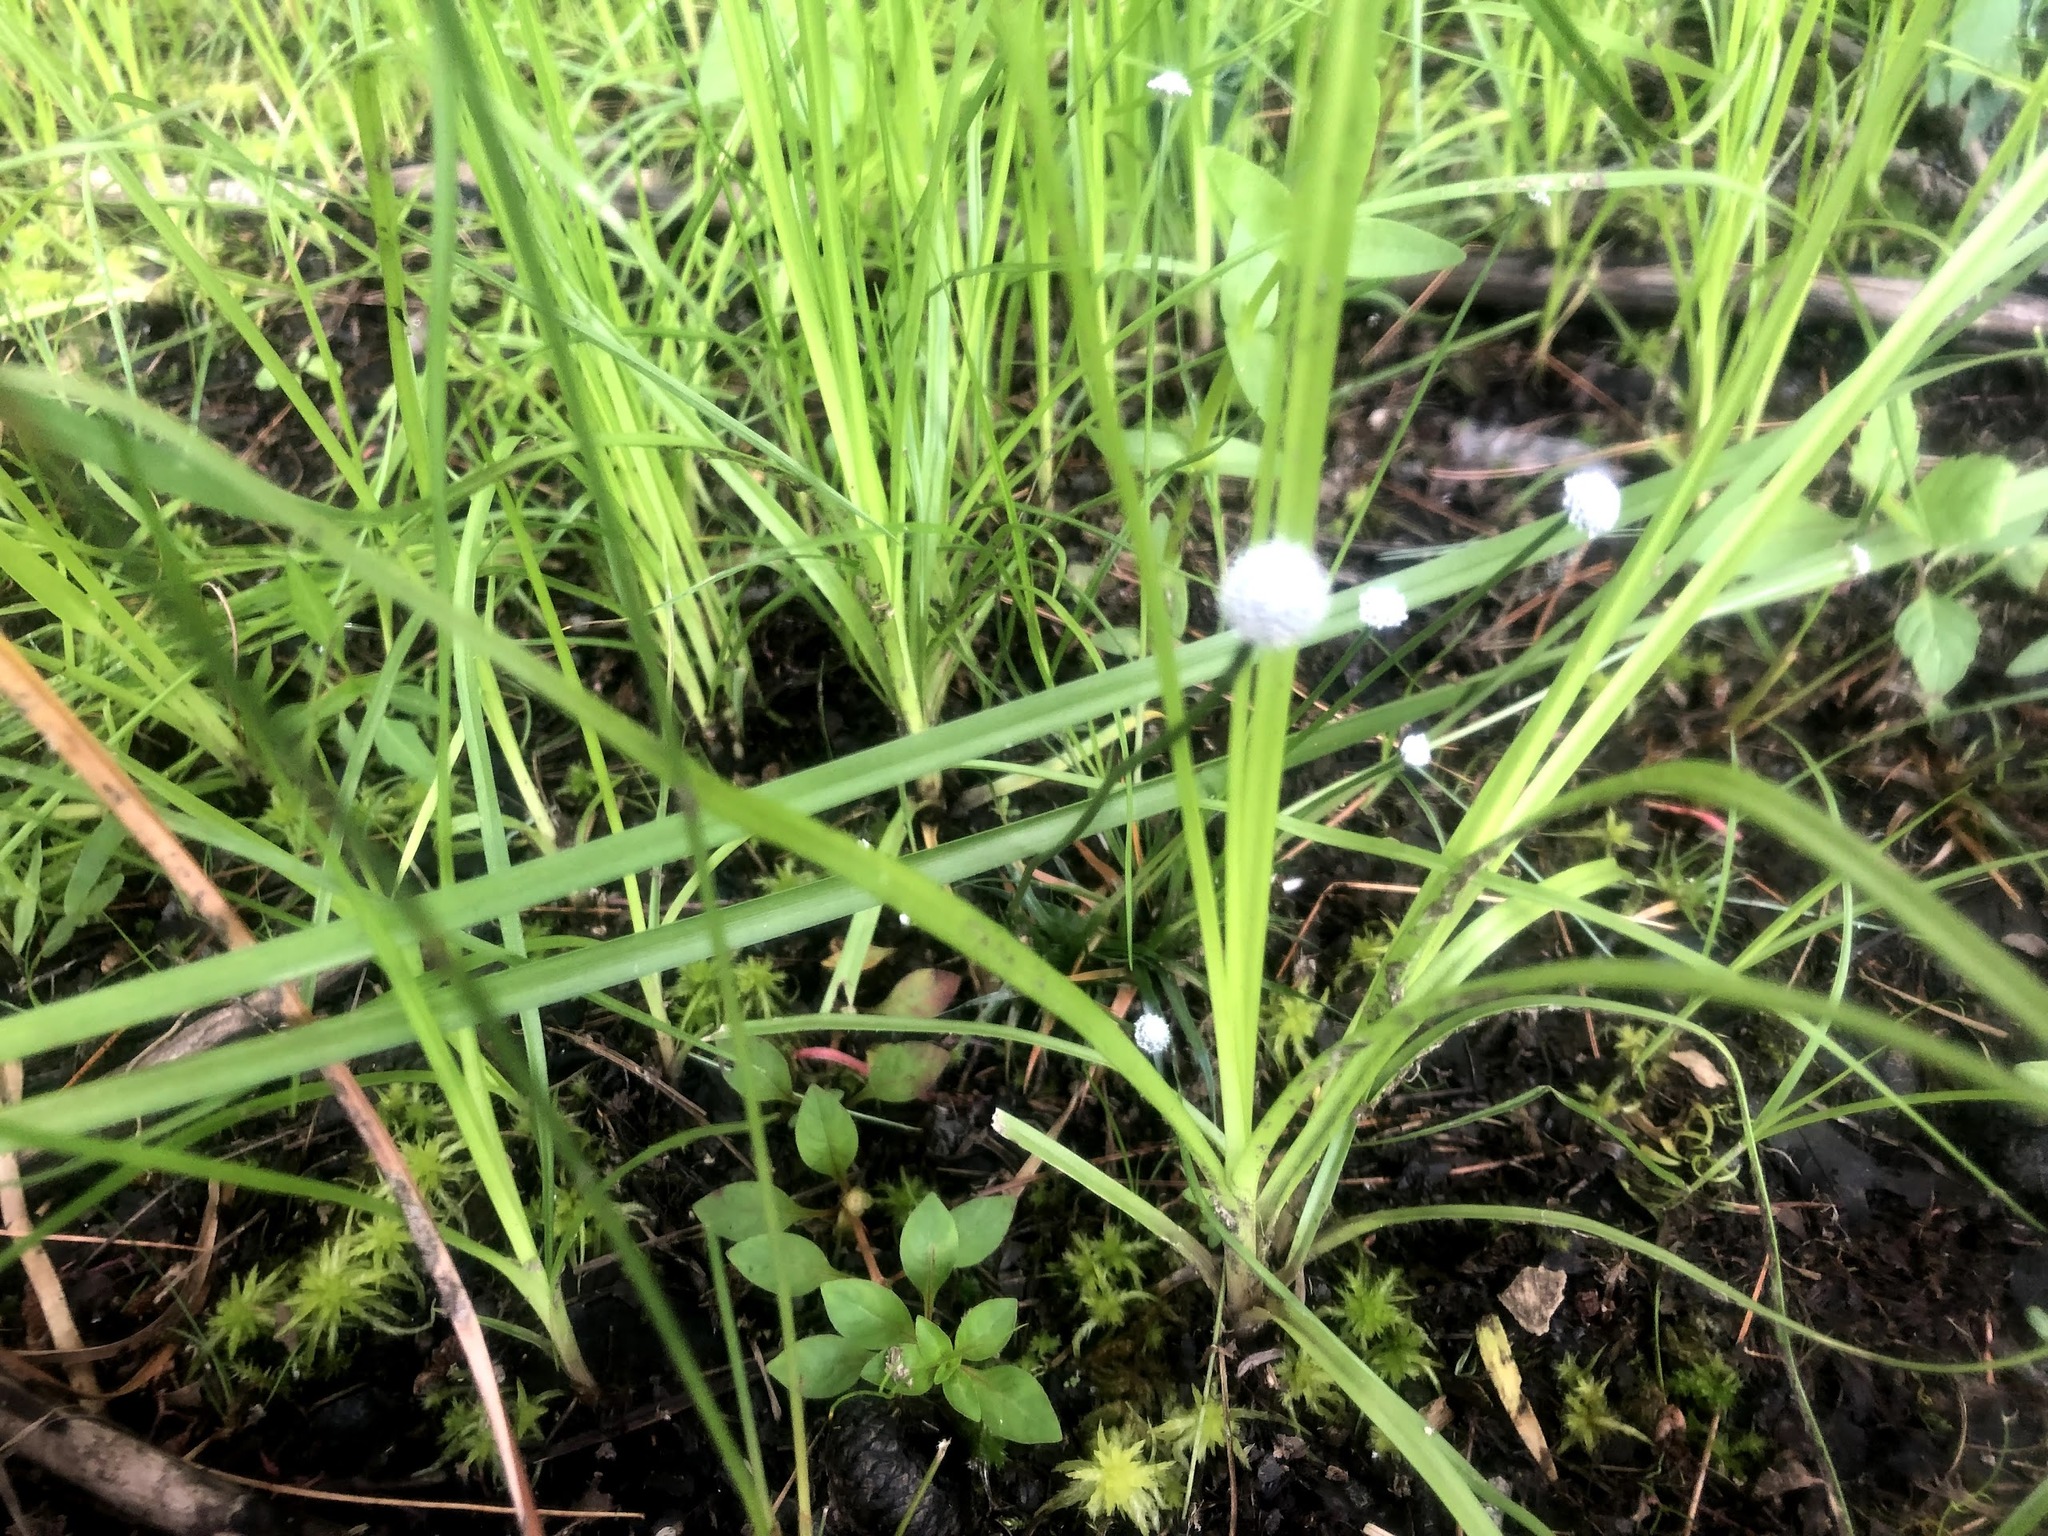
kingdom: Plantae
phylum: Tracheophyta
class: Liliopsida
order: Poales
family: Eriocaulaceae
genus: Eriocaulon
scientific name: Eriocaulon aquaticum
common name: Pipewort
